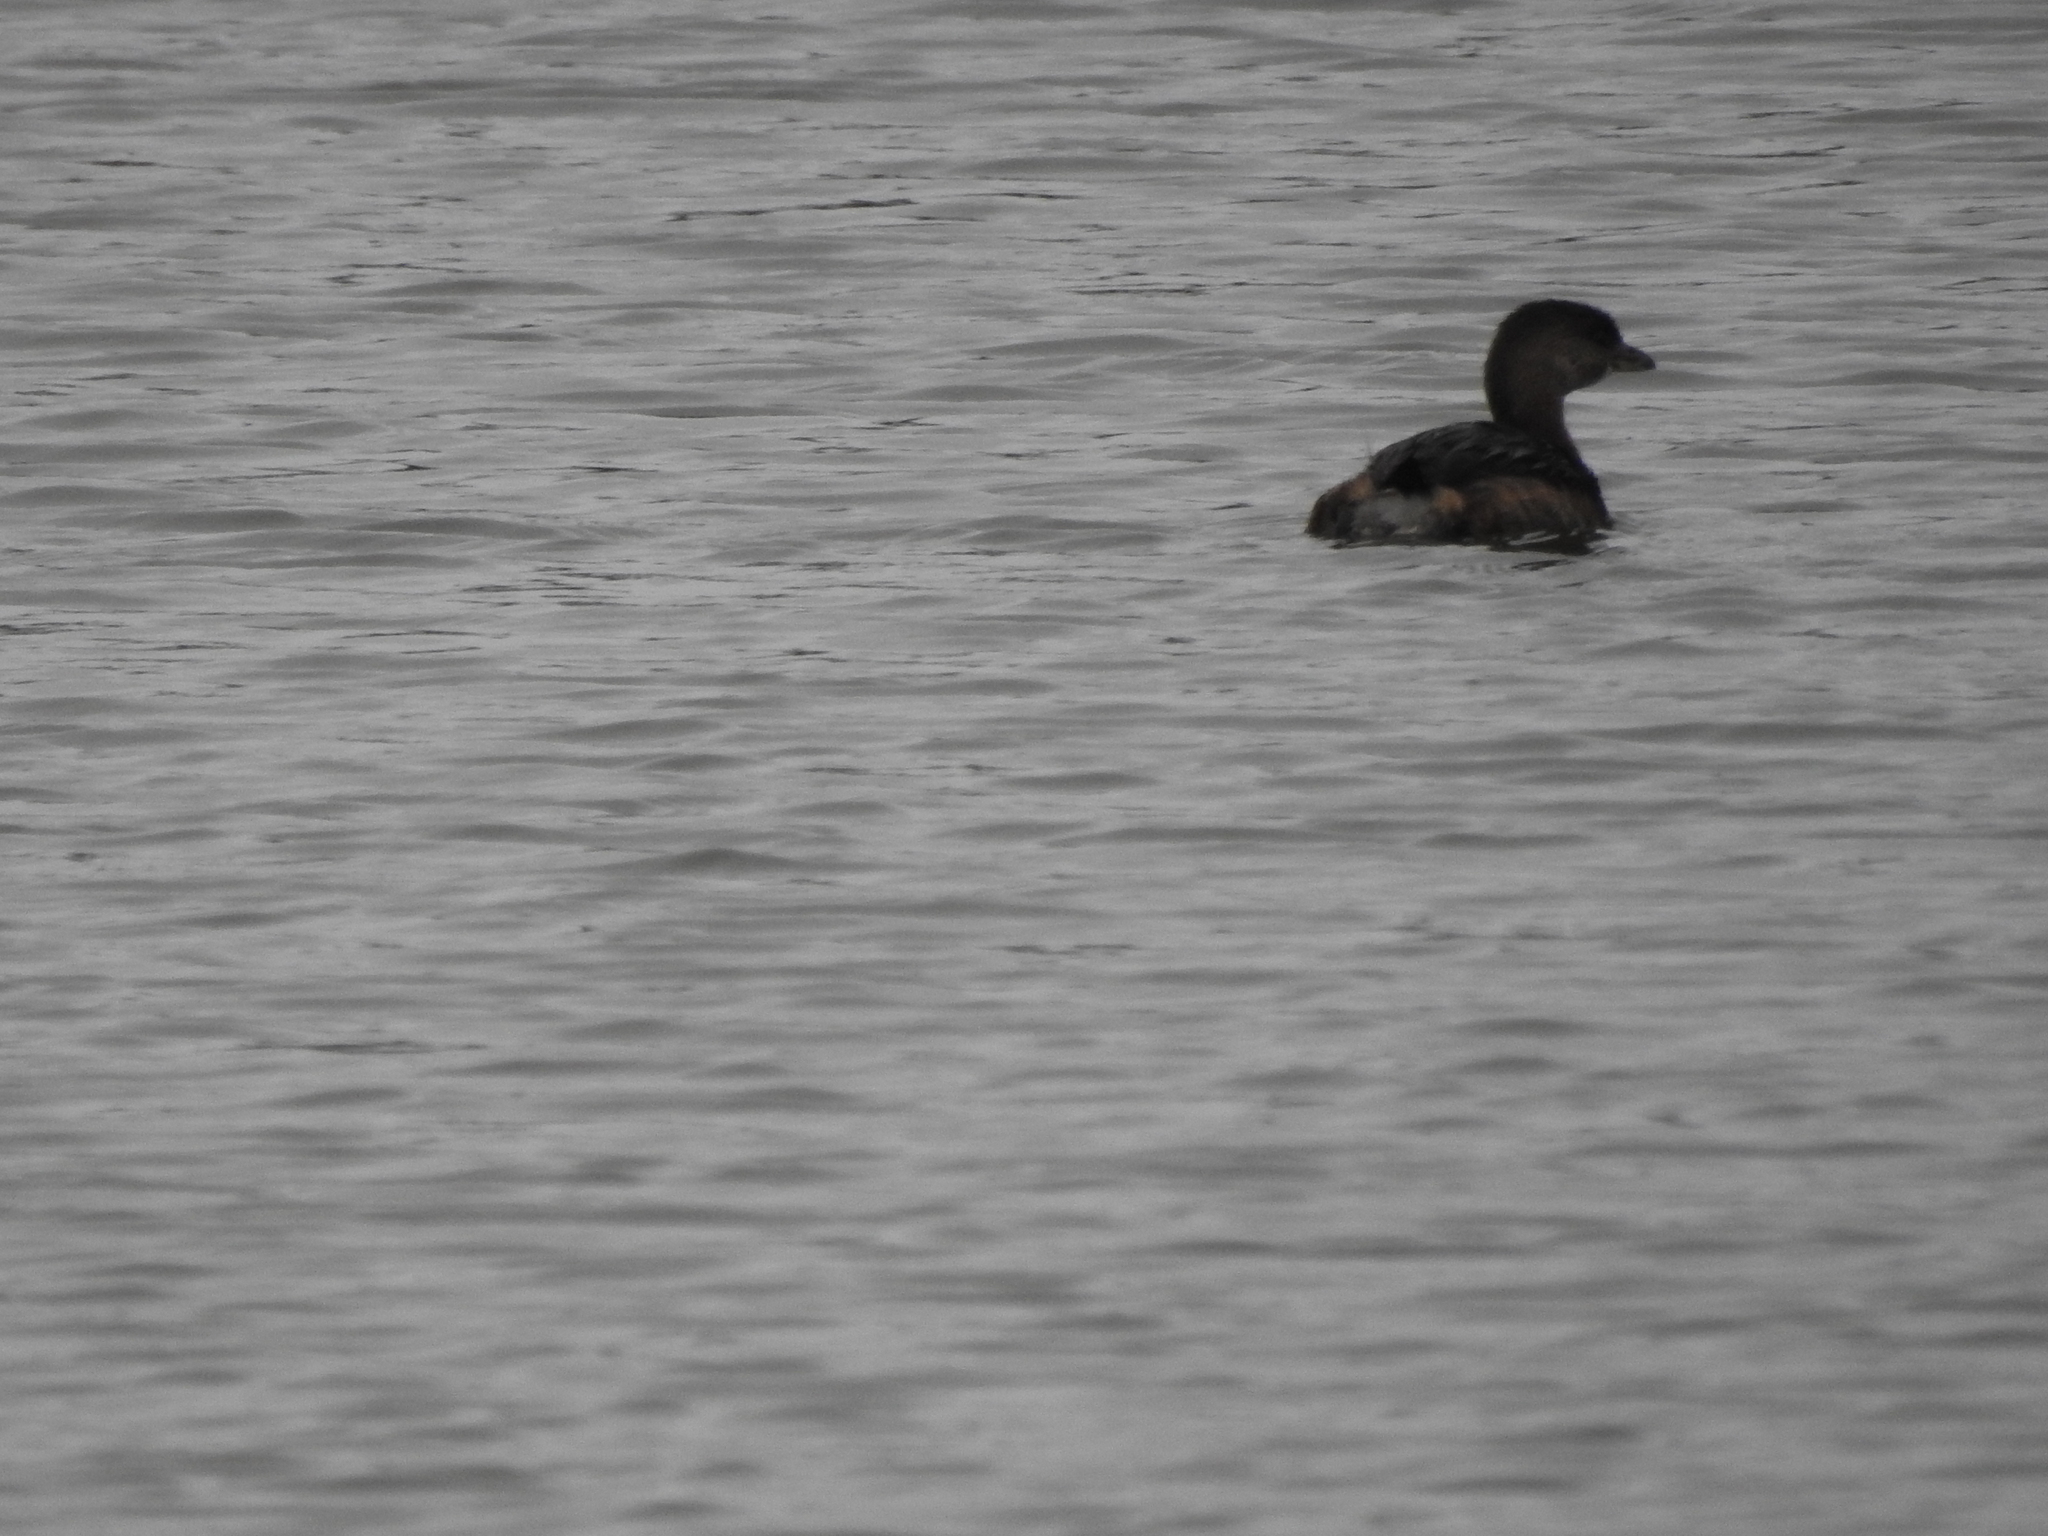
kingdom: Animalia
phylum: Chordata
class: Aves
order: Podicipediformes
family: Podicipedidae
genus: Podilymbus
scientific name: Podilymbus podiceps
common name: Pied-billed grebe
